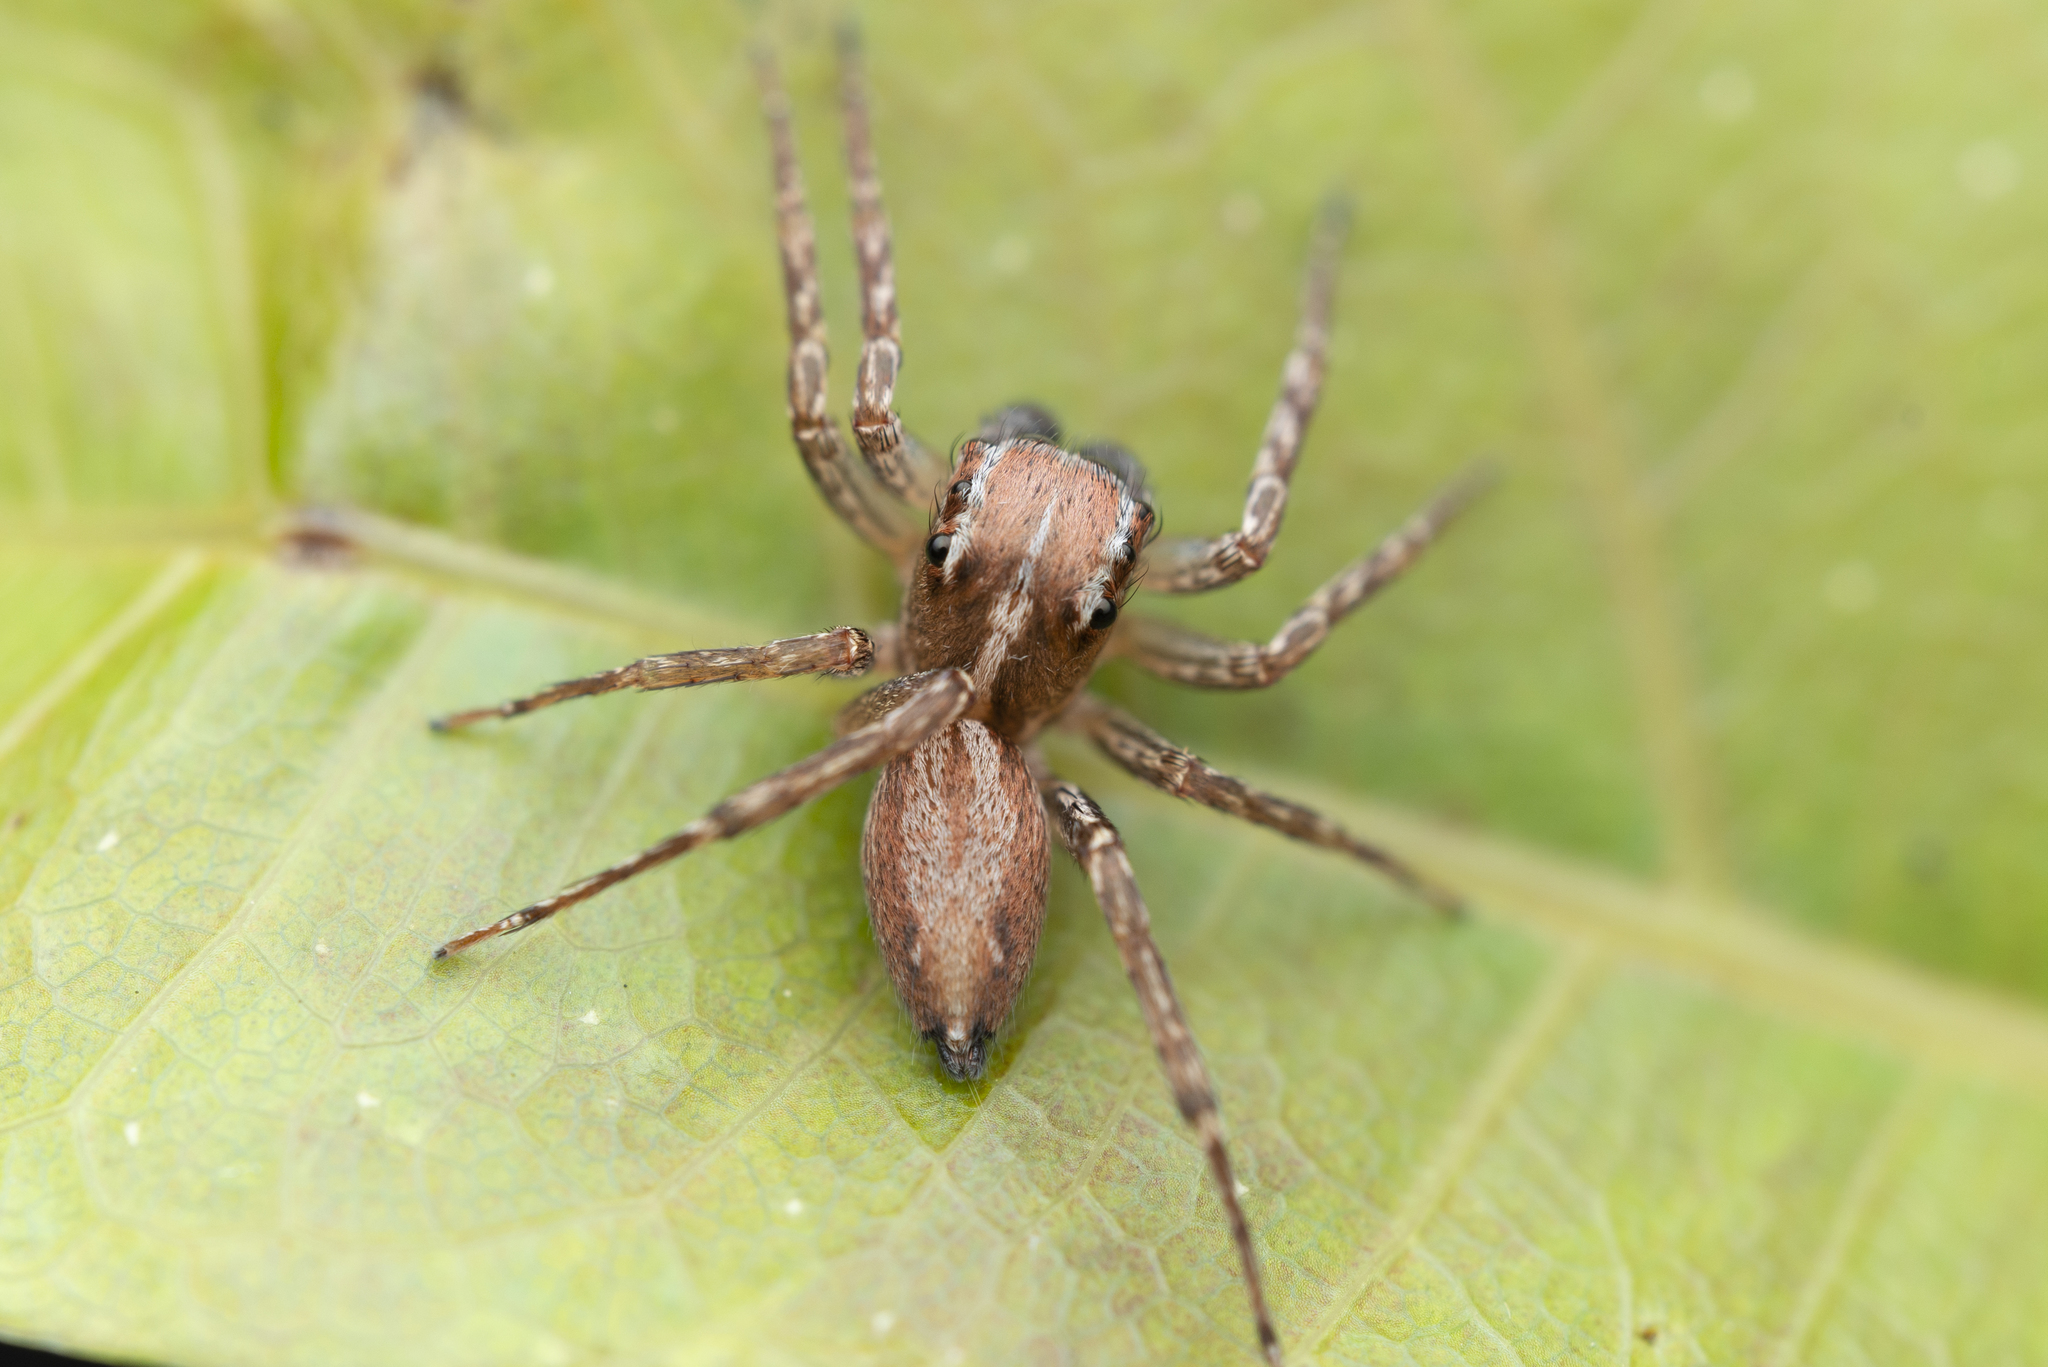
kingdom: Animalia
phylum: Arthropoda
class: Arachnida
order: Araneae
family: Salticidae
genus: Gelotia
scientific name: Gelotia syringopalpis
